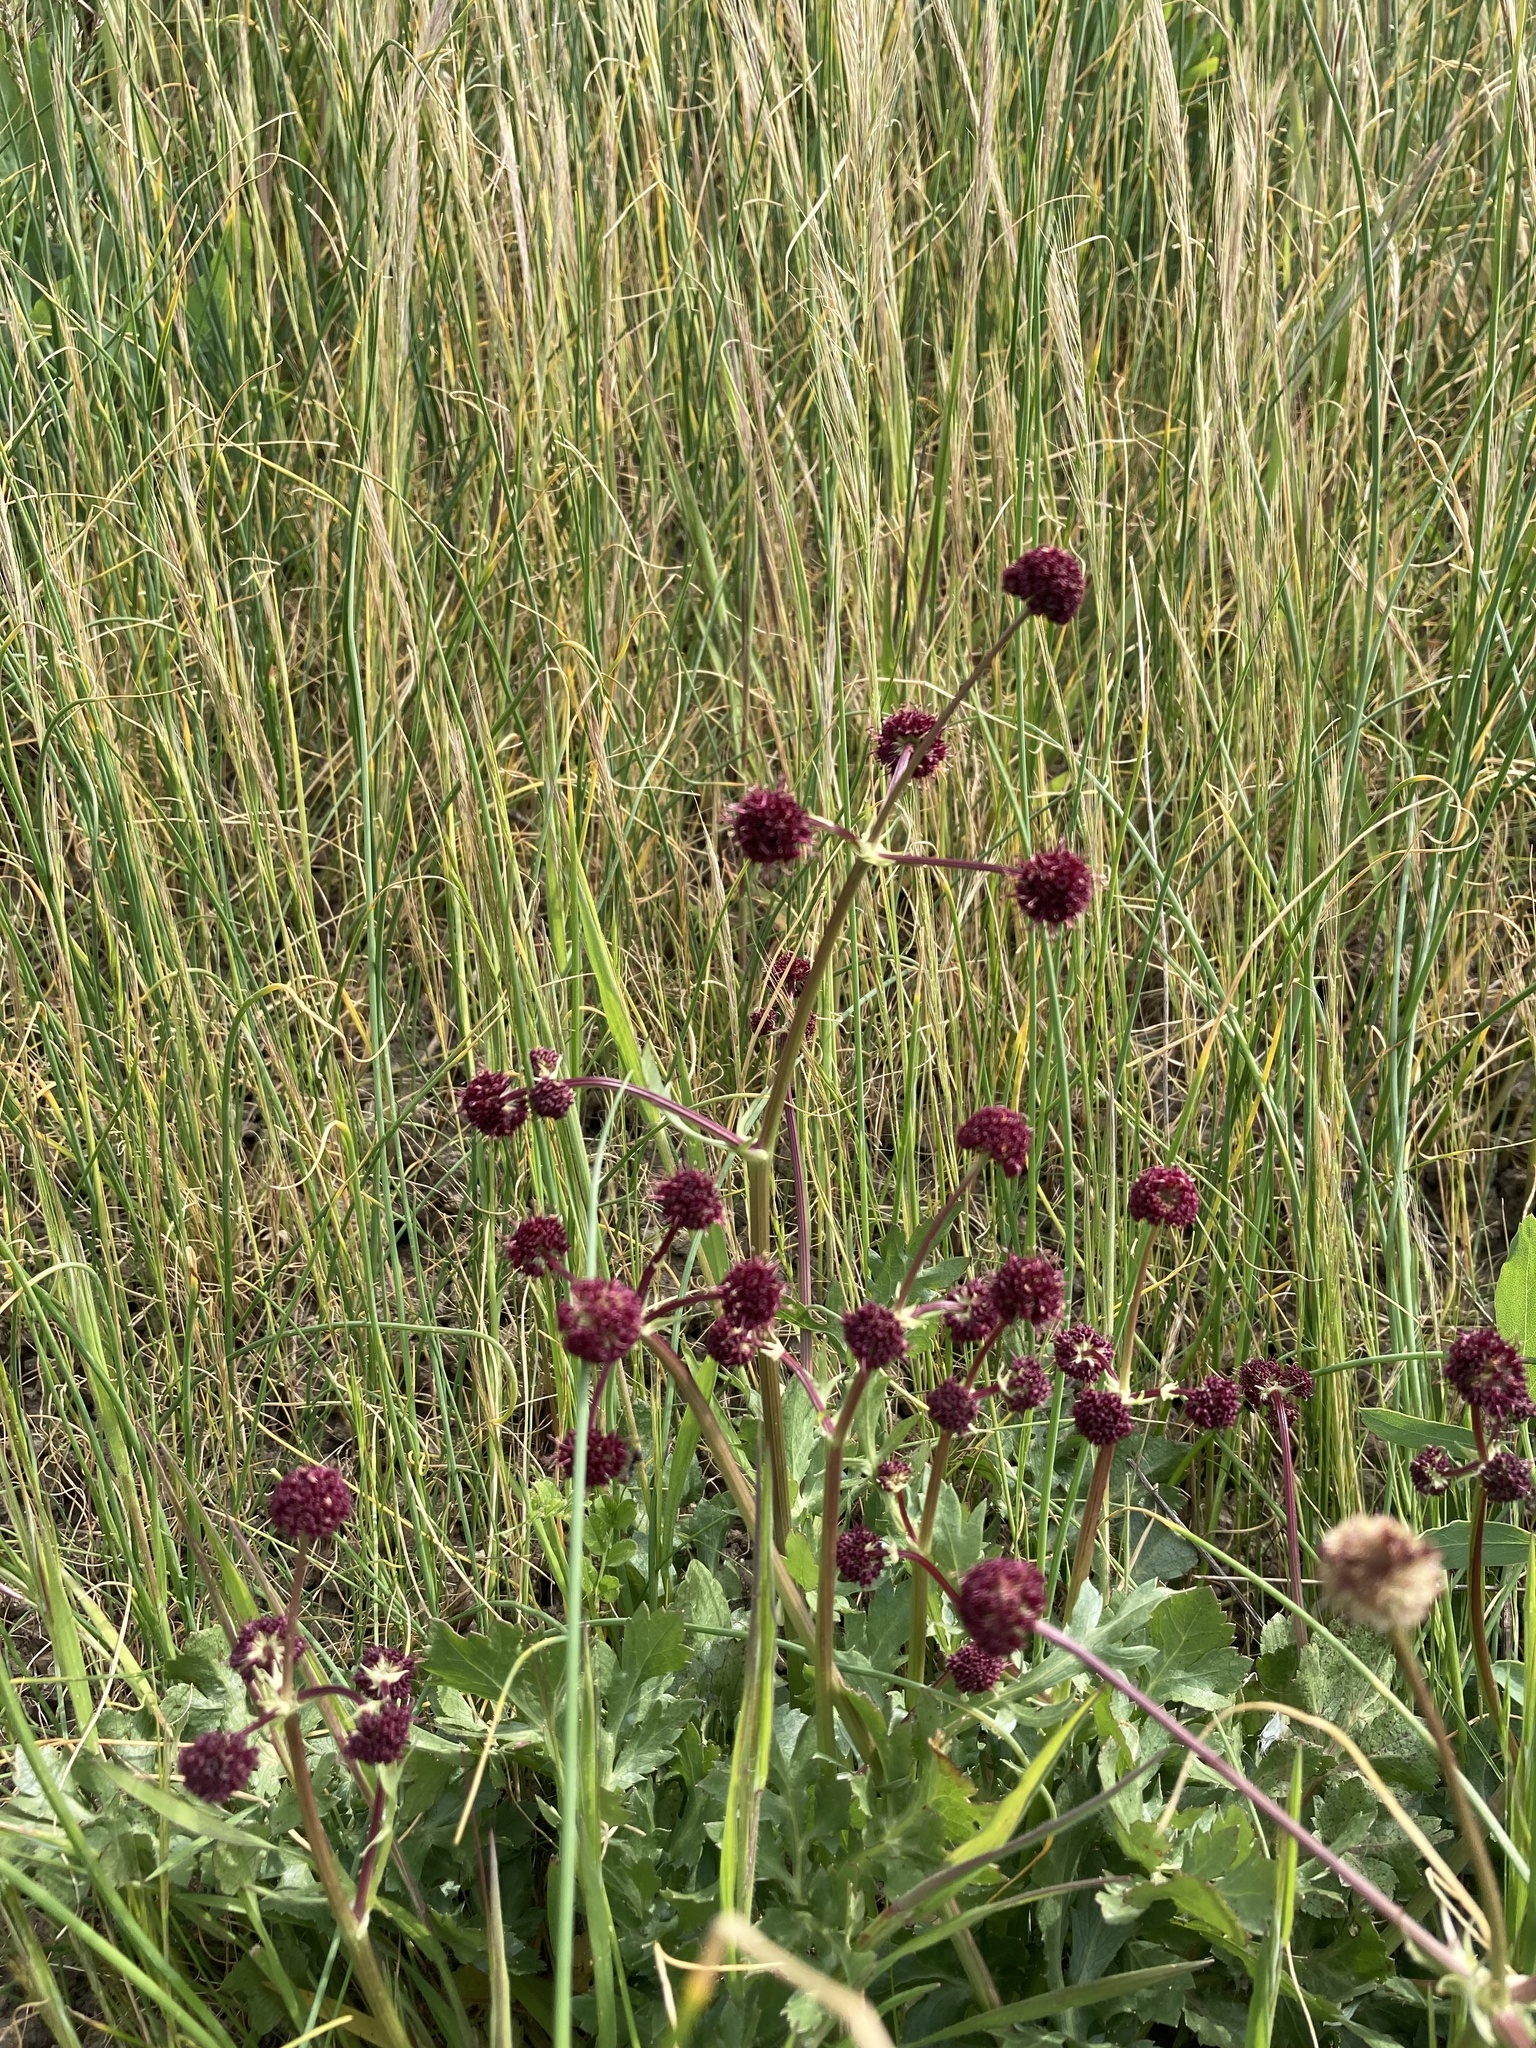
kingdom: Plantae
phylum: Tracheophyta
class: Magnoliopsida
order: Apiales
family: Apiaceae
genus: Sanicula
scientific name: Sanicula bipinnatifida
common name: Shoe-buttons
